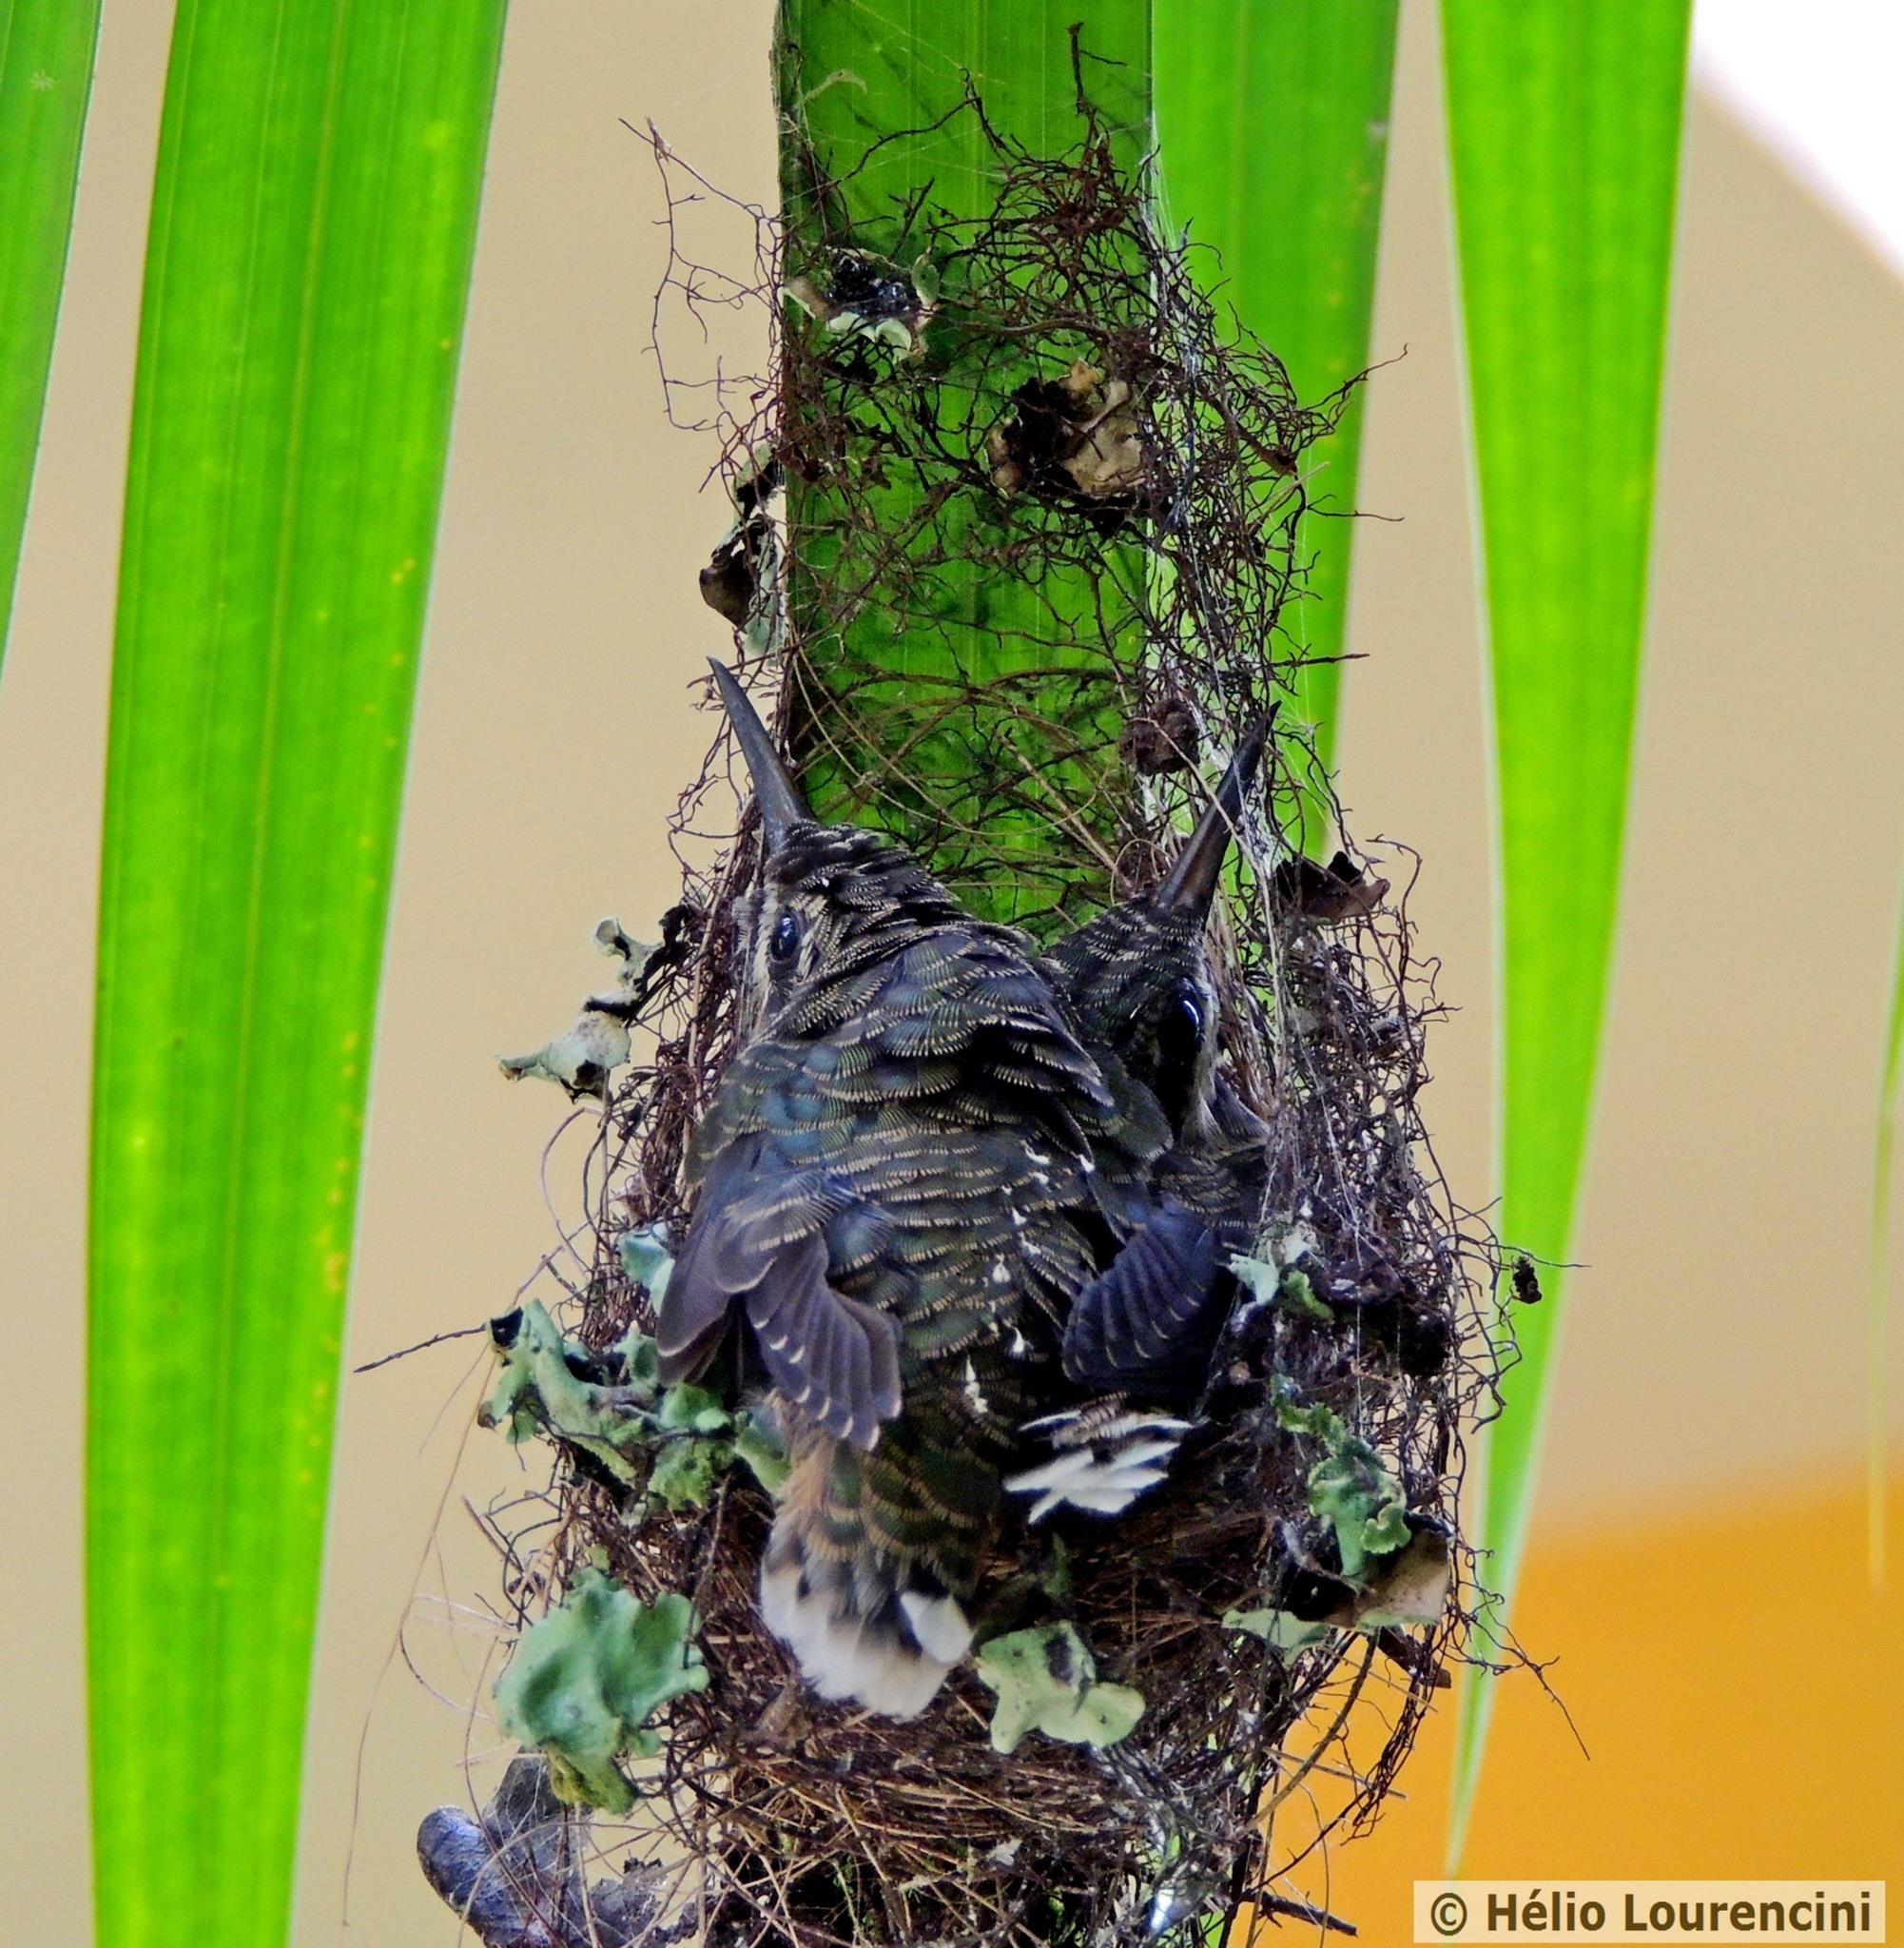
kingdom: Animalia
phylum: Chordata
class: Aves
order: Apodiformes
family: Trochilidae
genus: Glaucis
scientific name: Glaucis hirsutus
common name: Rufous-breasted hermit
